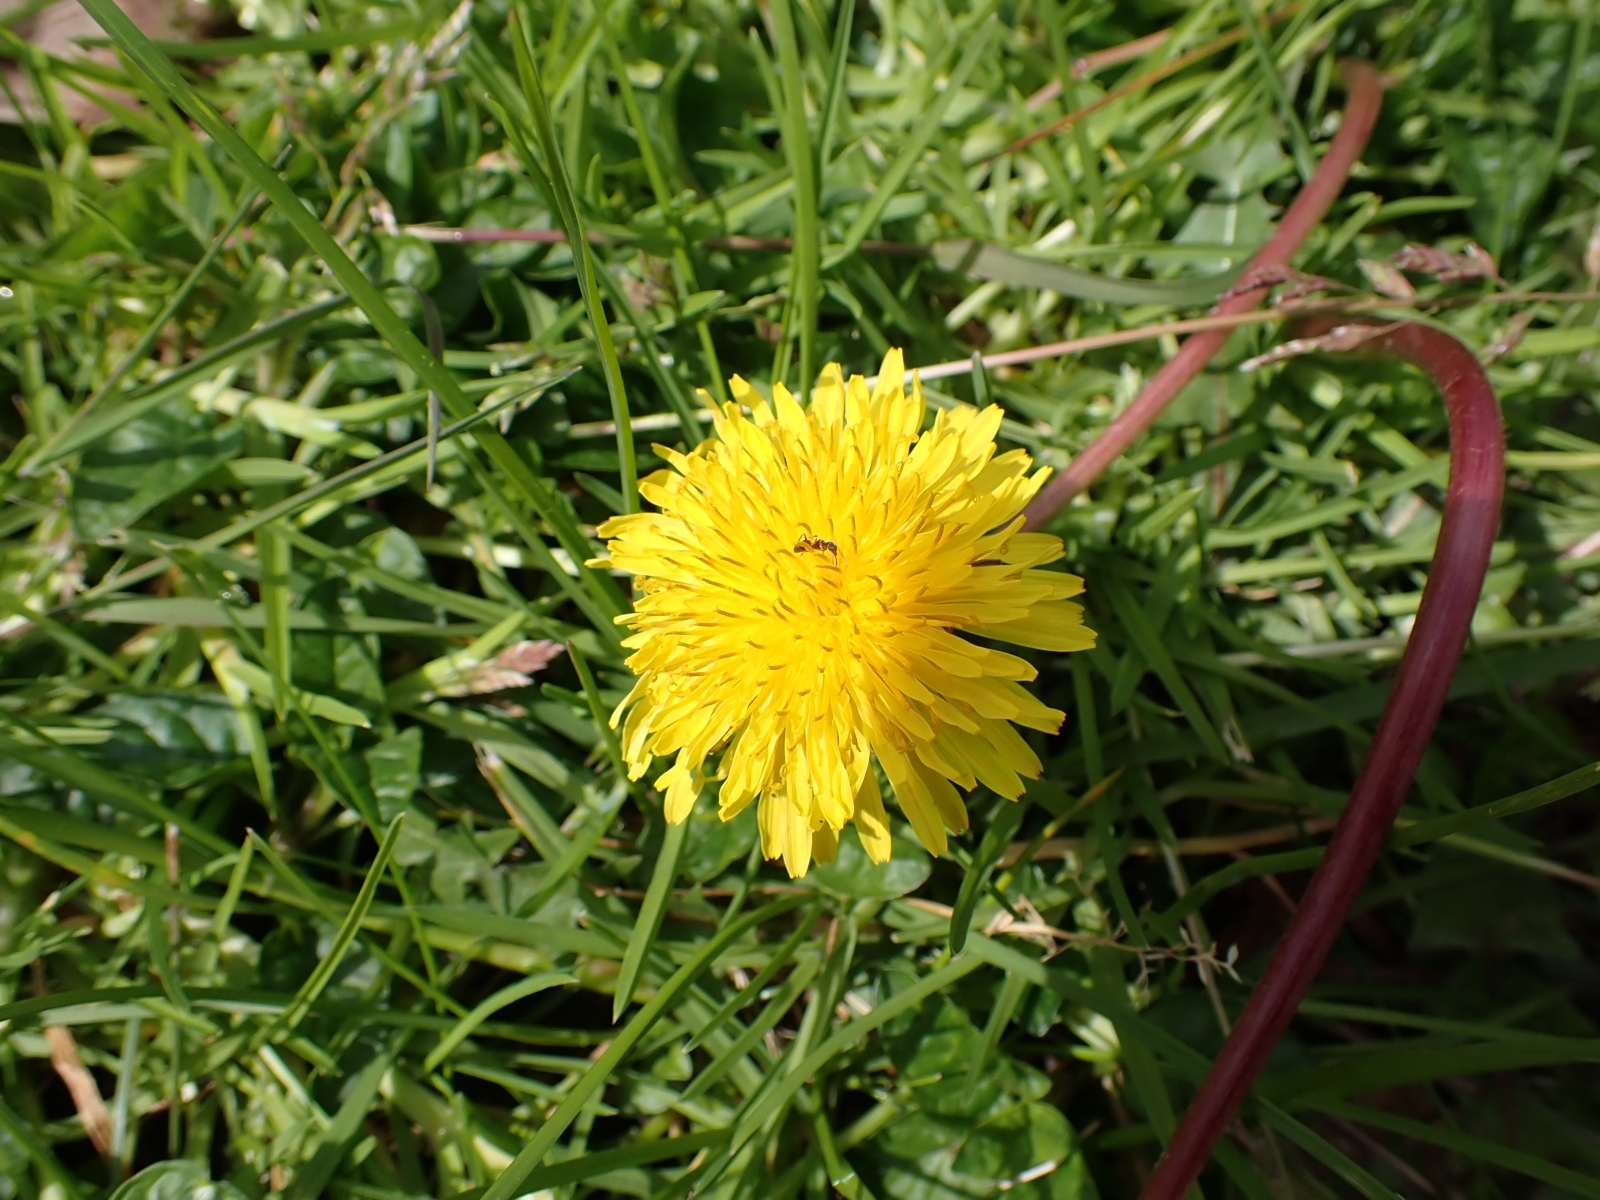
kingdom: Plantae
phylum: Tracheophyta
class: Magnoliopsida
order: Asterales
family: Asteraceae
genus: Taraxacum
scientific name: Taraxacum officinale
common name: Common dandelion
